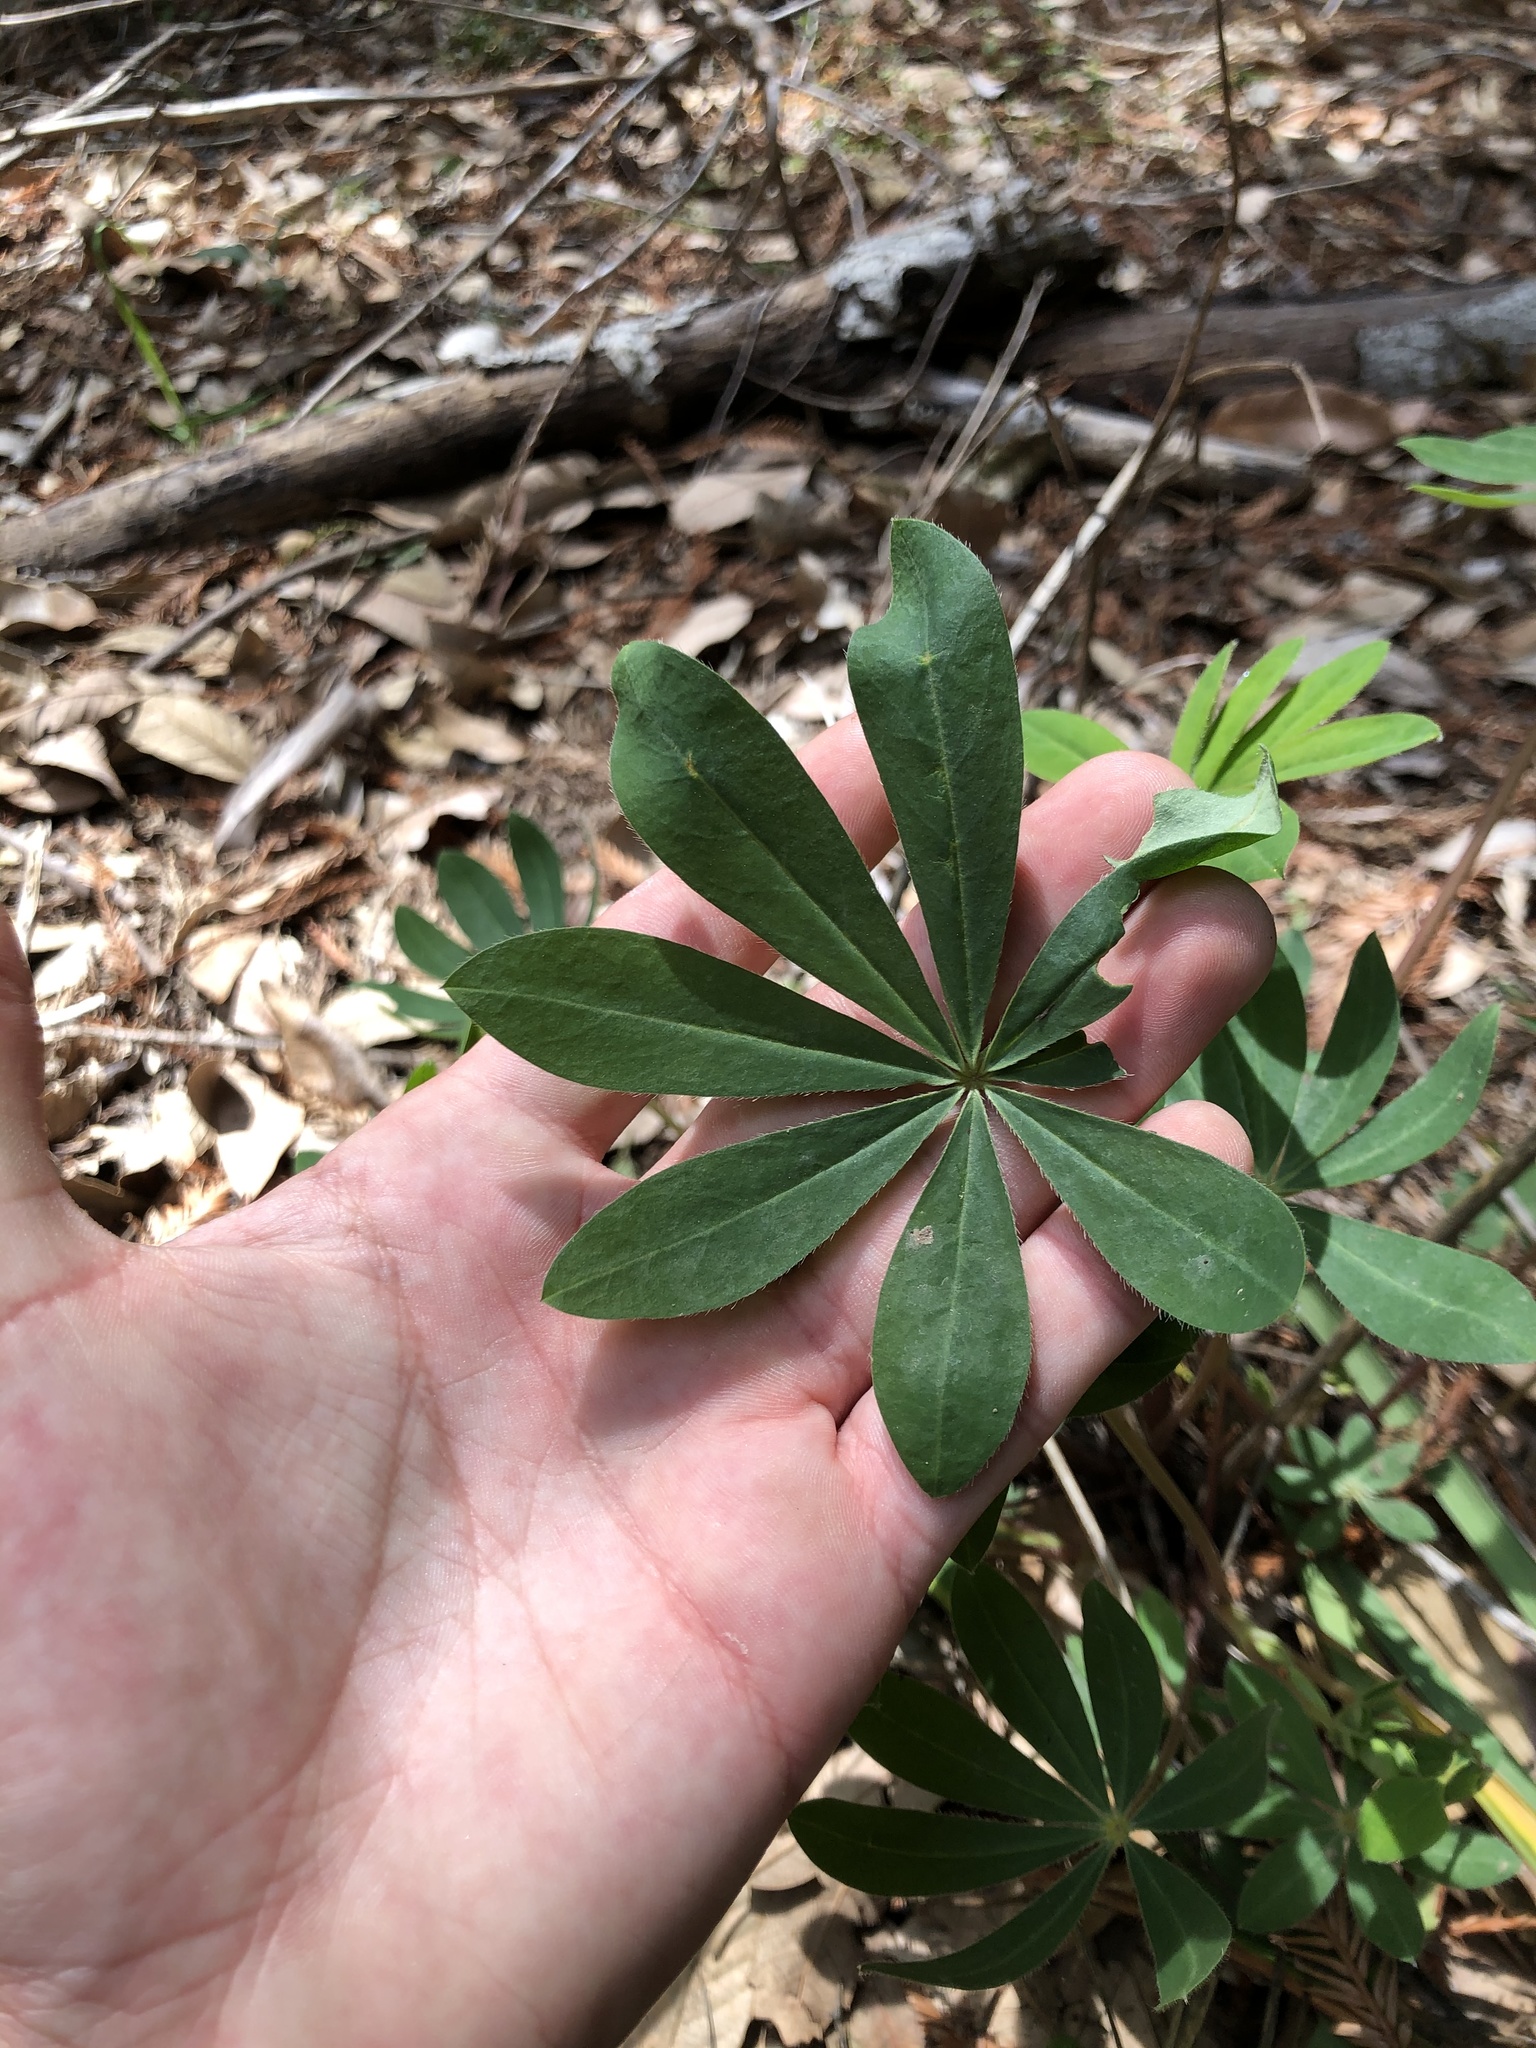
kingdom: Plantae
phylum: Tracheophyta
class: Magnoliopsida
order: Fabales
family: Fabaceae
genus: Lupinus
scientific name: Lupinus latifolius
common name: Broad-leaved lupine
